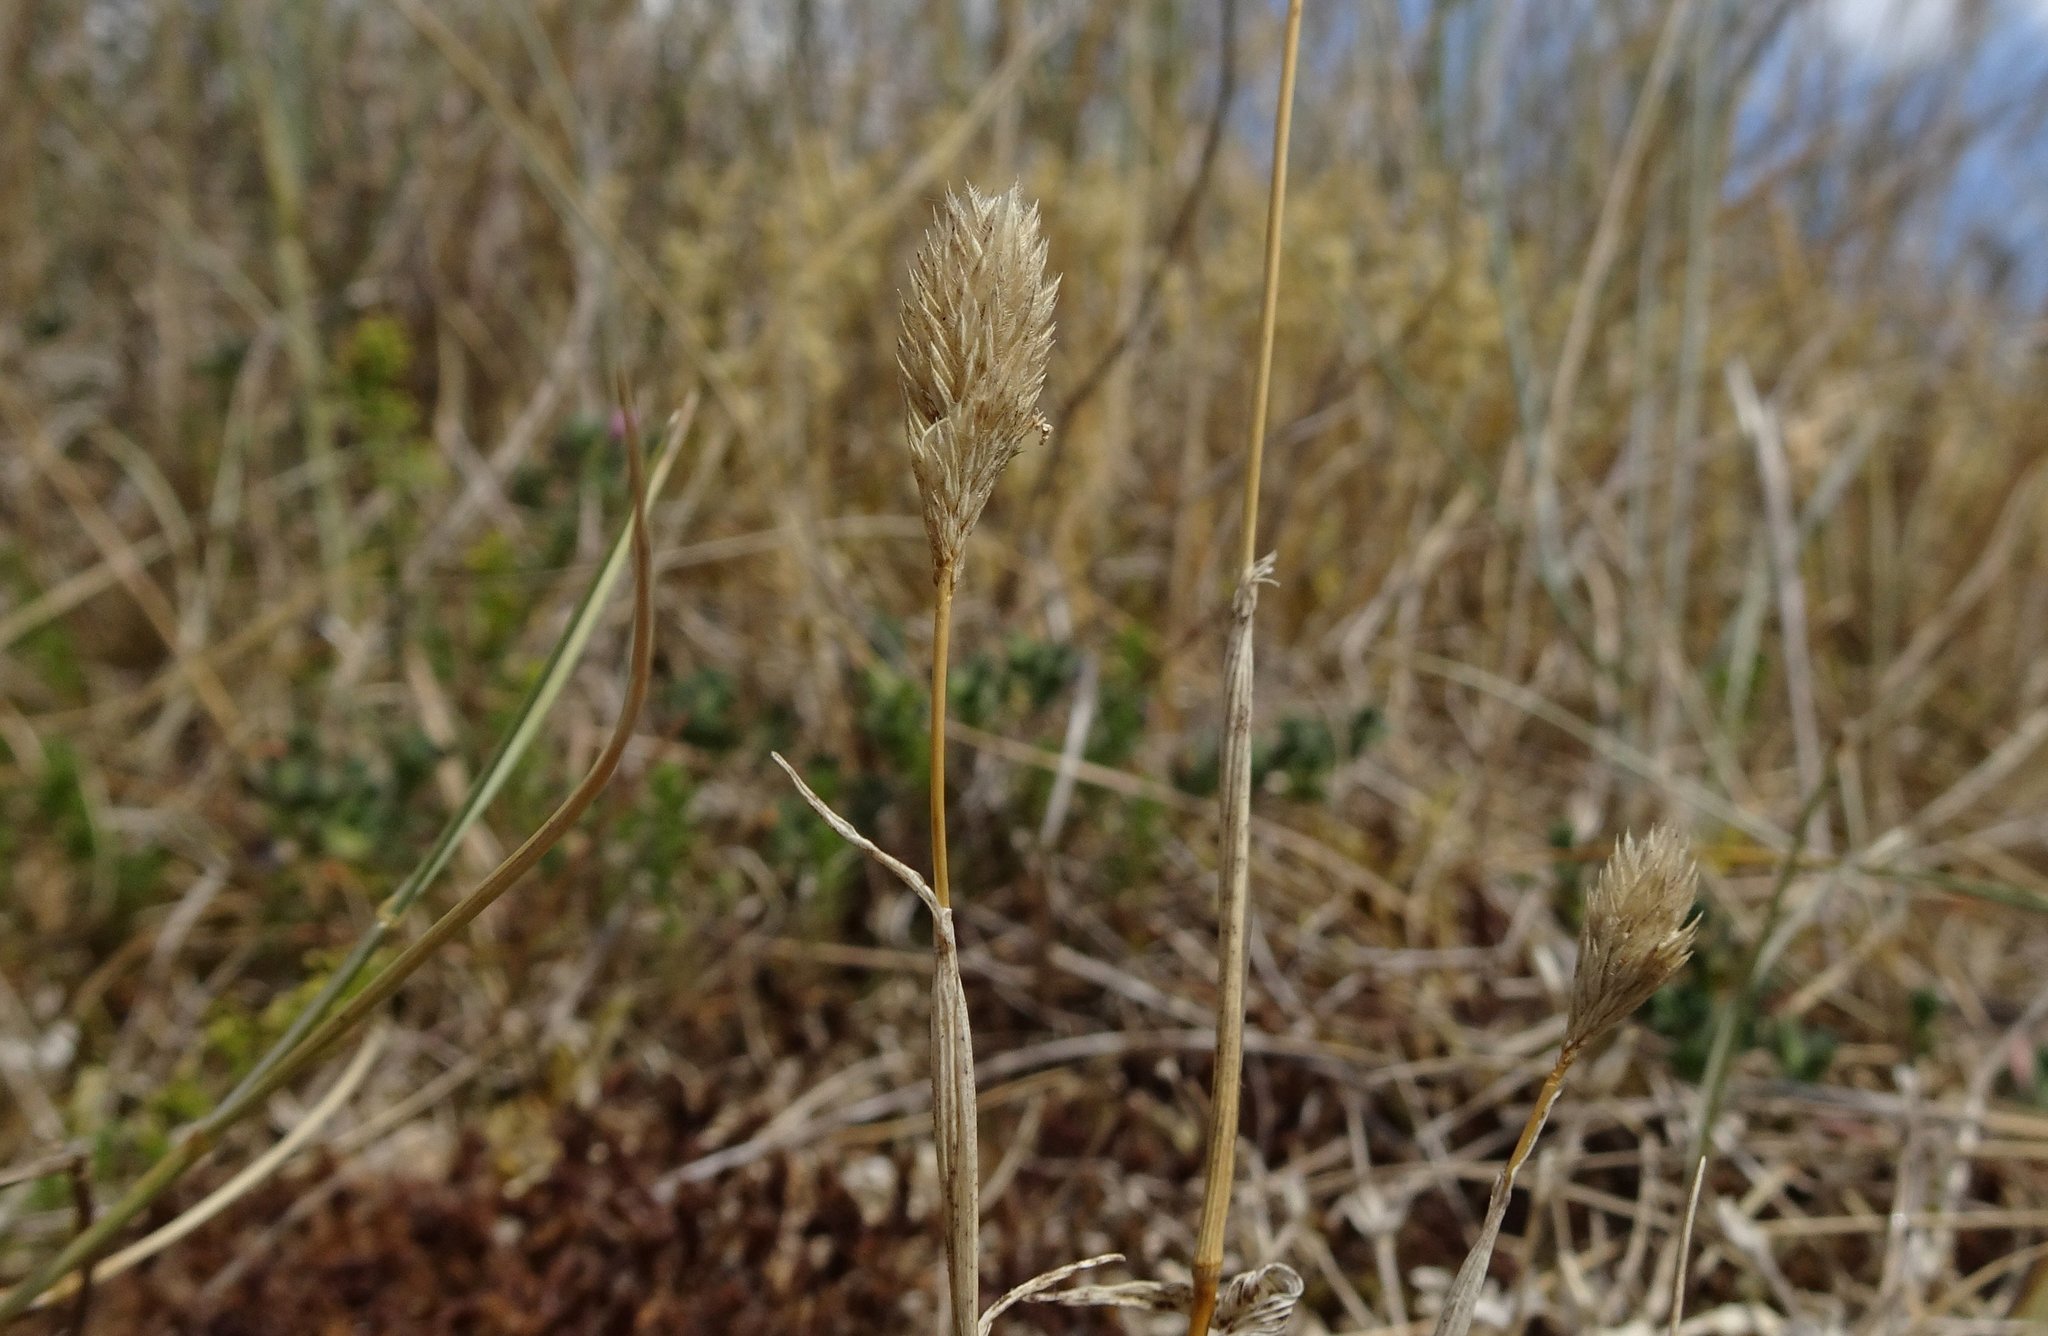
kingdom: Plantae
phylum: Tracheophyta
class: Liliopsida
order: Poales
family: Poaceae
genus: Phleum
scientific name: Phleum arenarium
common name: Sand cat's-tail
